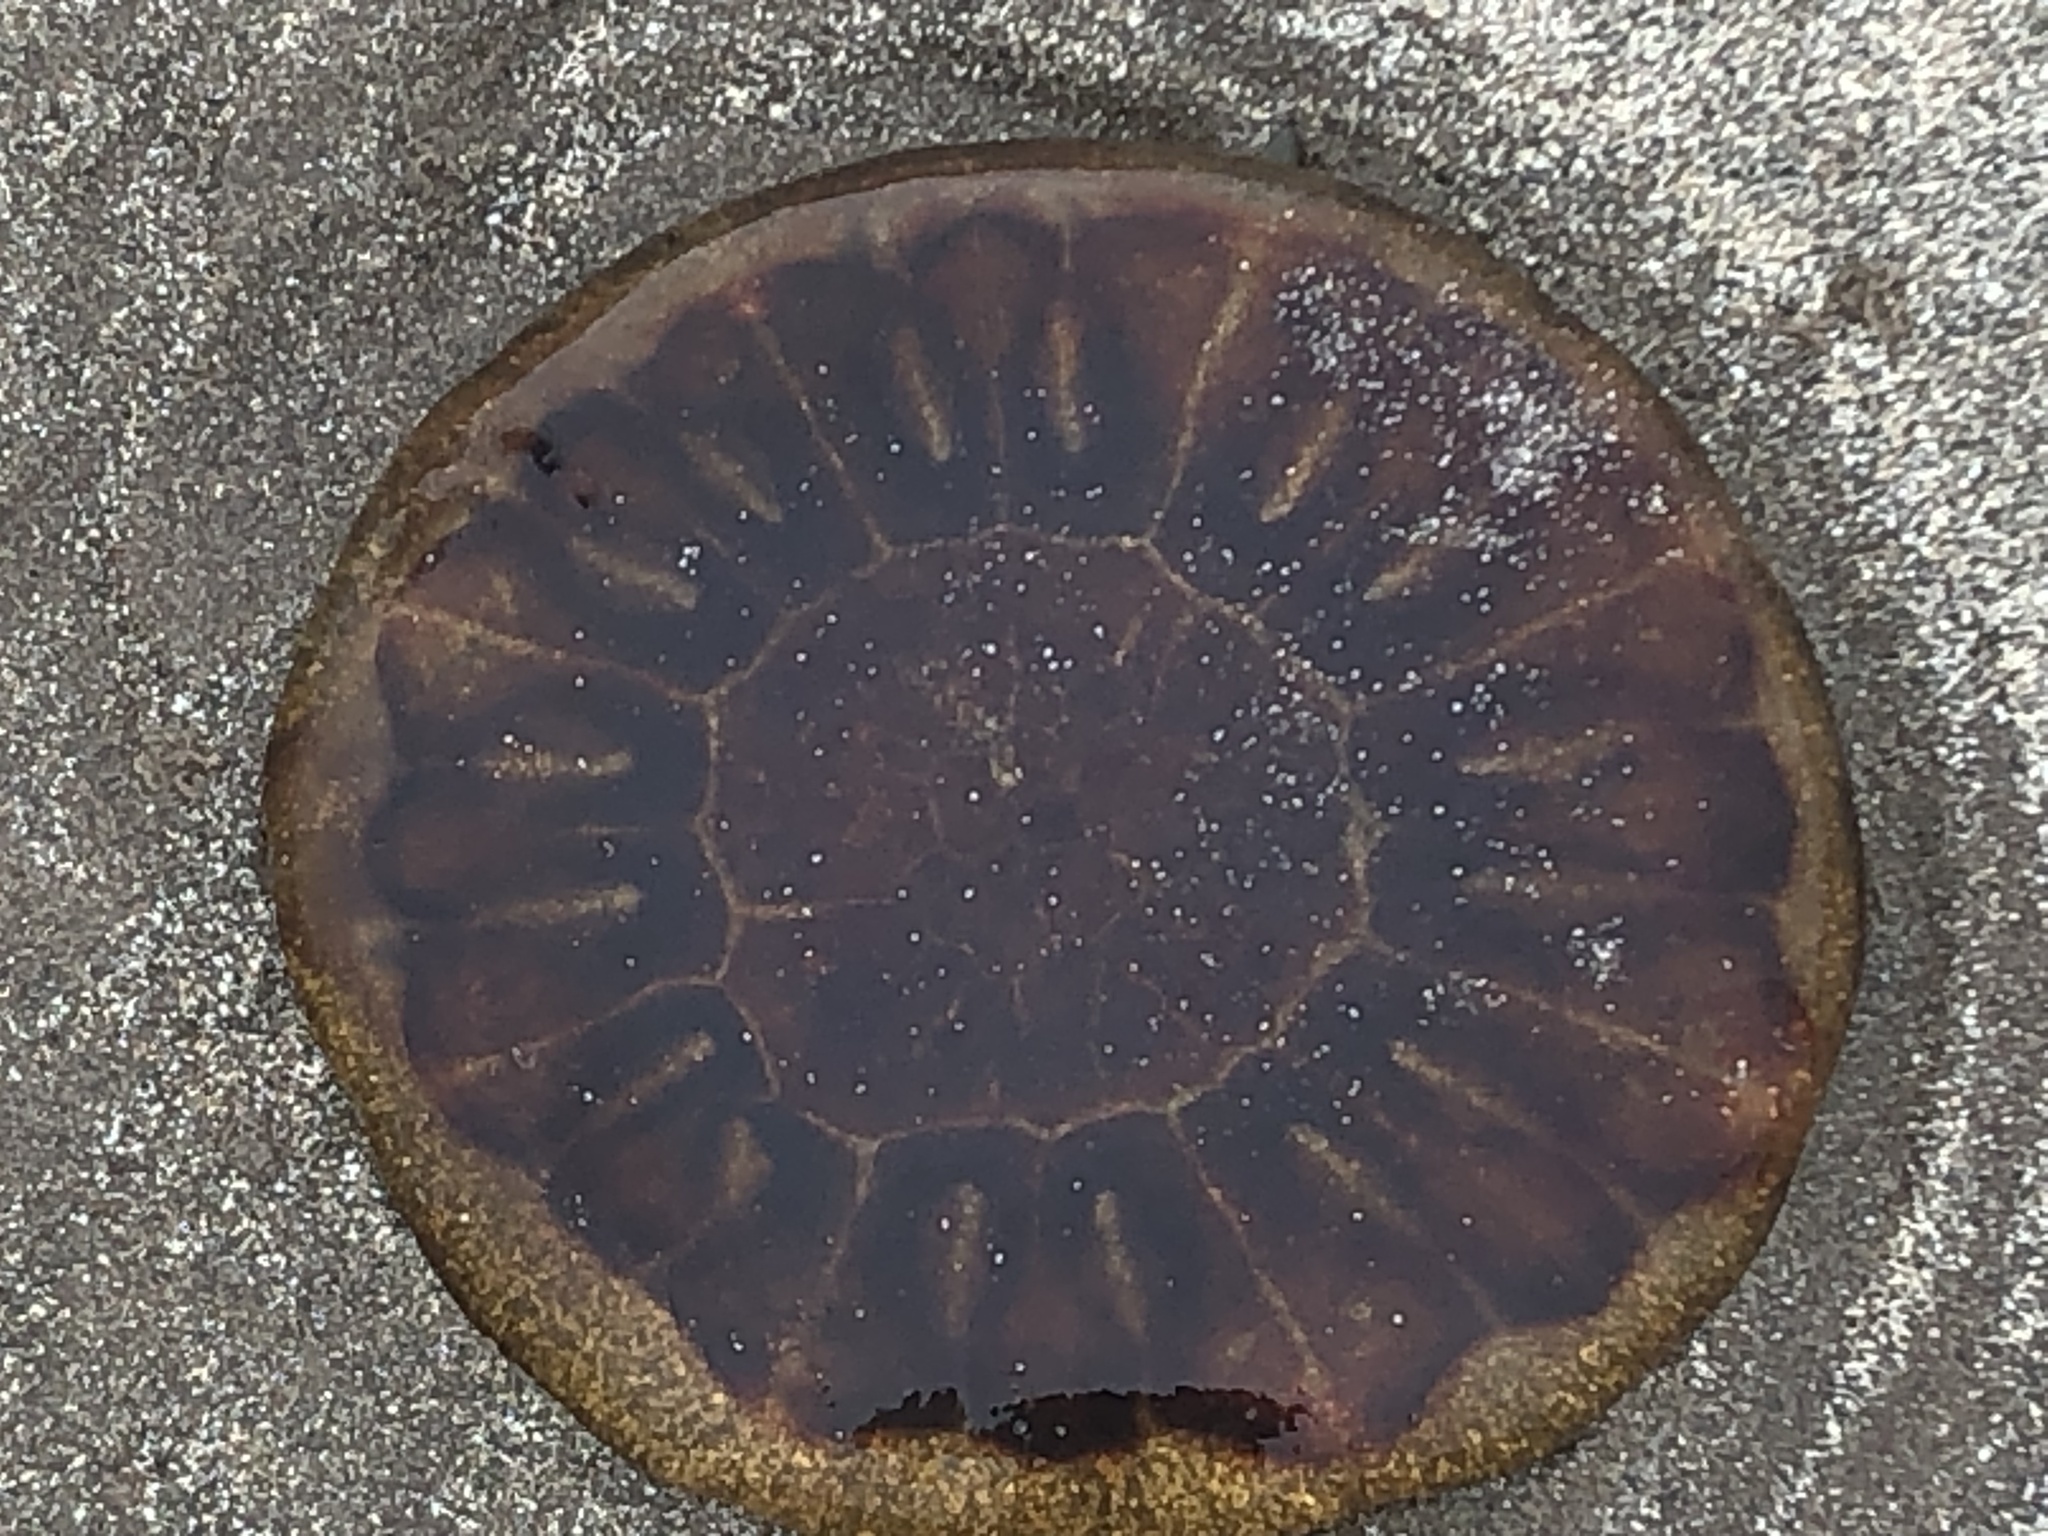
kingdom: Animalia
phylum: Cnidaria
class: Scyphozoa
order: Semaeostomeae
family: Cyaneidae
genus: Cyanea
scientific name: Cyanea capillata
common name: Lion's mane jellyfish
